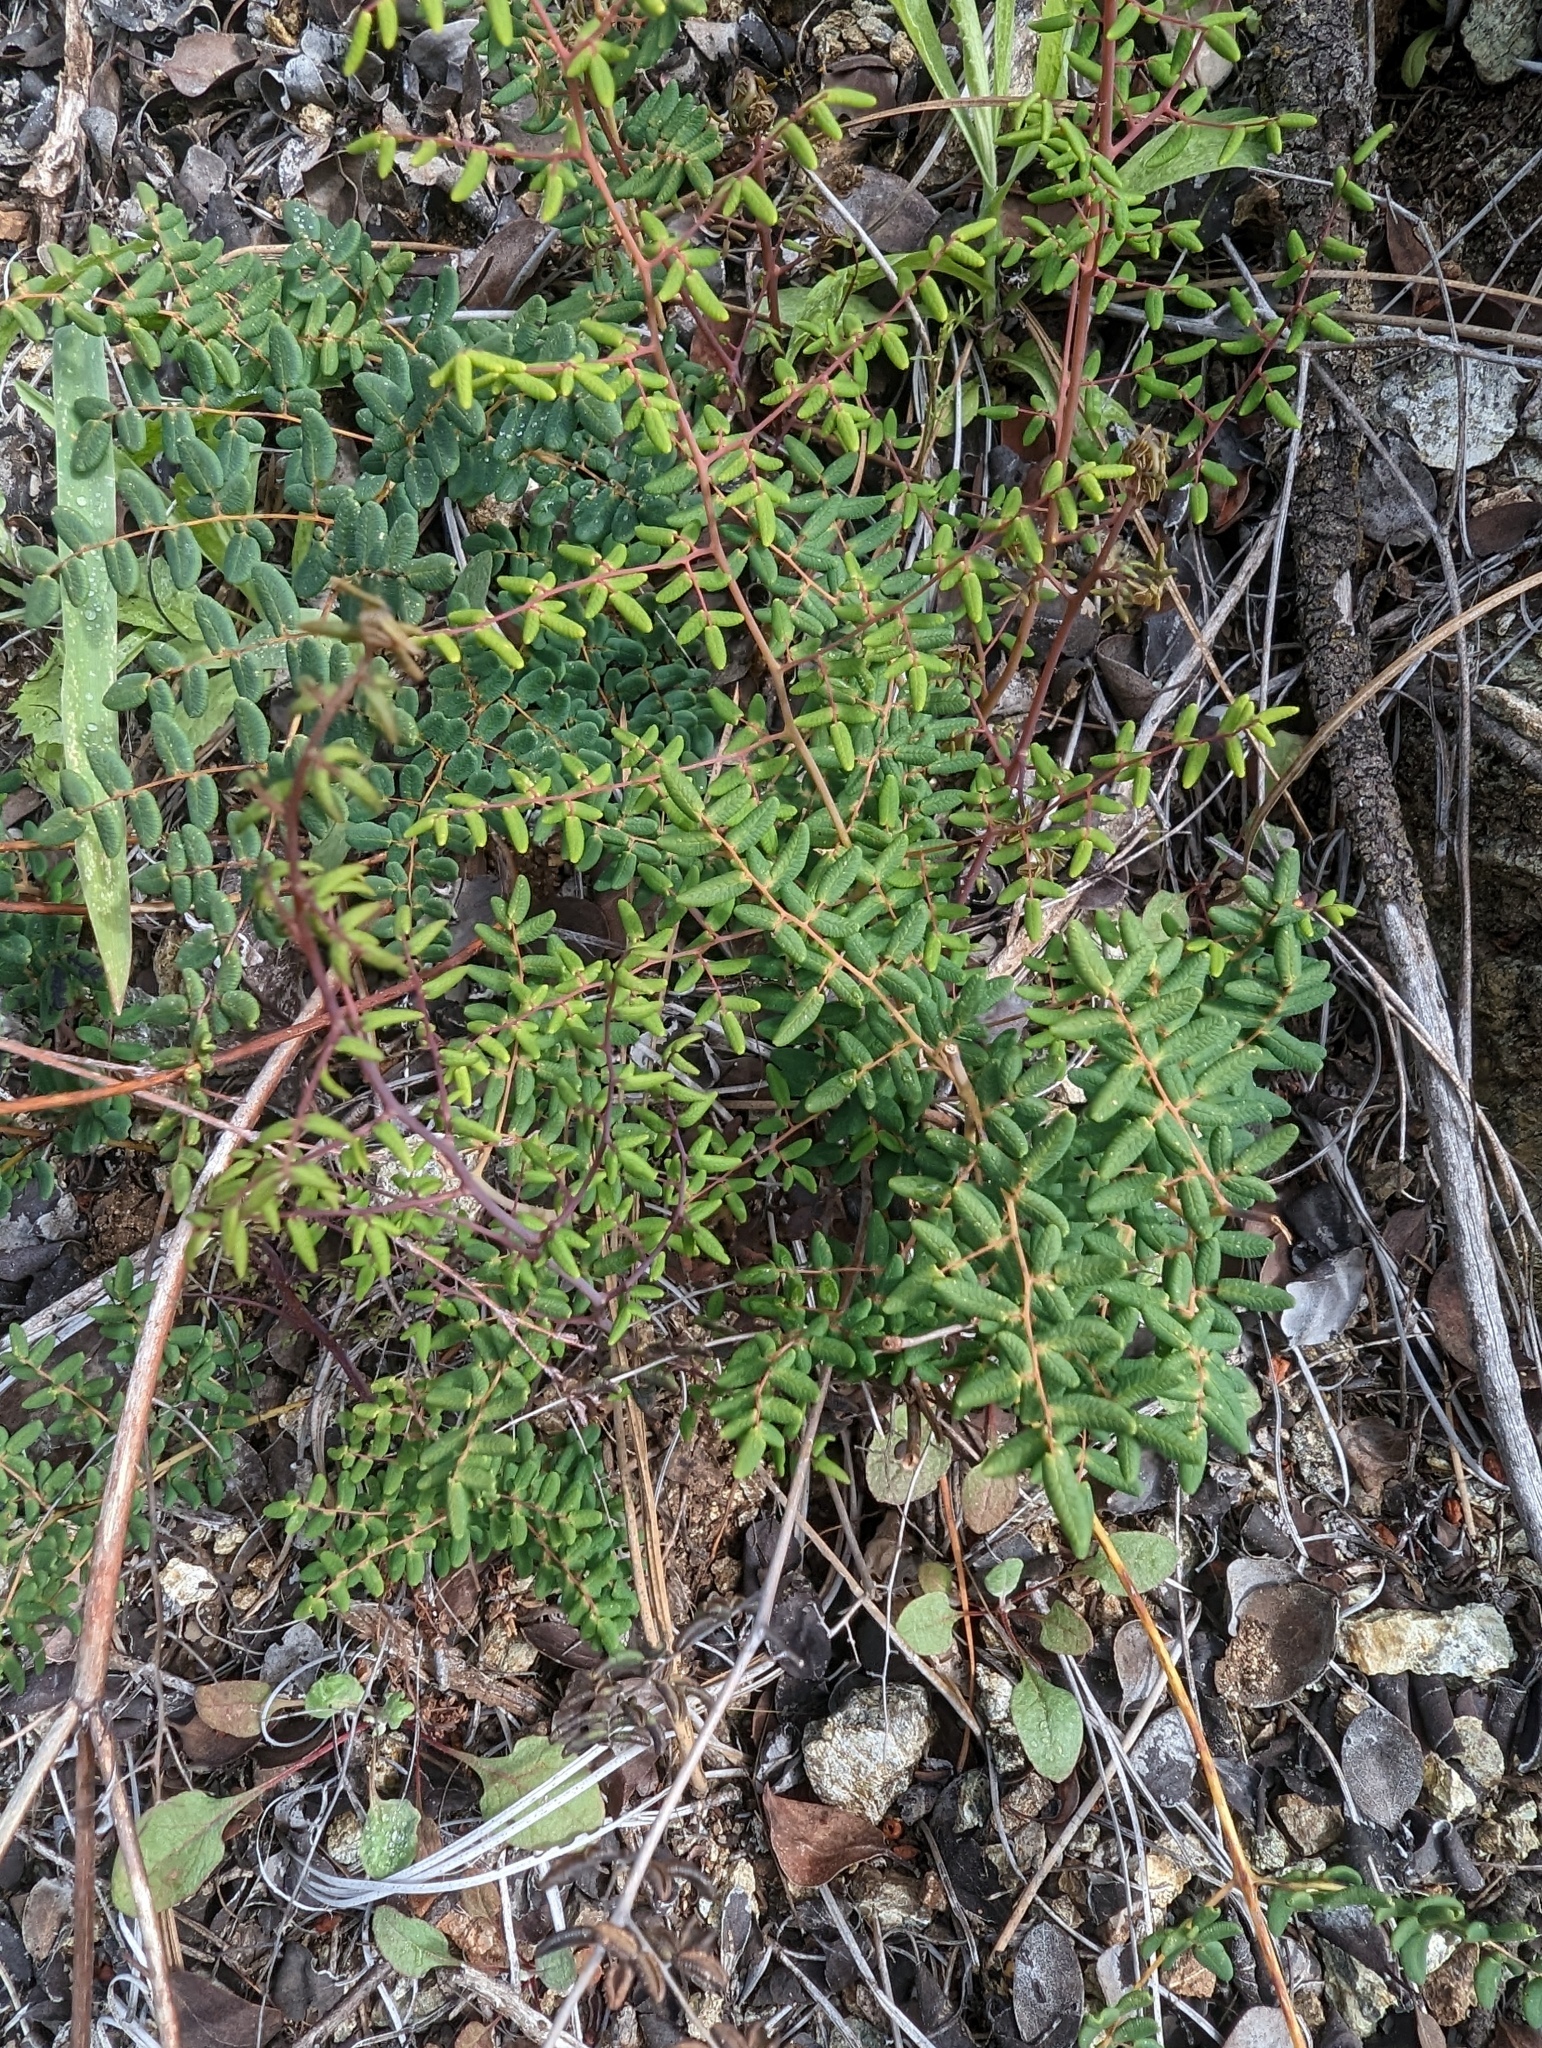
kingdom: Plantae
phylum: Tracheophyta
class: Polypodiopsida
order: Polypodiales
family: Pteridaceae
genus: Pellaea
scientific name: Pellaea andromedifolia
